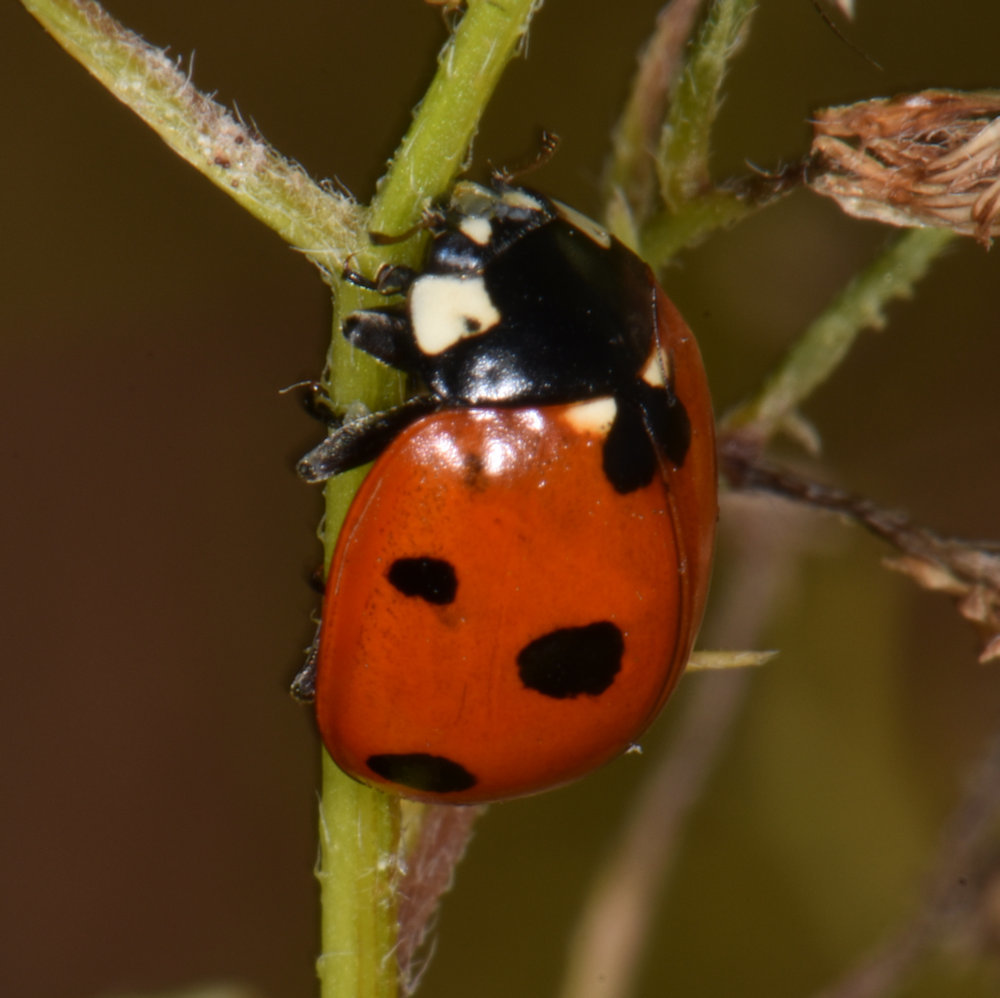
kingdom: Animalia
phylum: Arthropoda
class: Insecta
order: Coleoptera
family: Coccinellidae
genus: Coccinella
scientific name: Coccinella septempunctata
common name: Sevenspotted lady beetle
